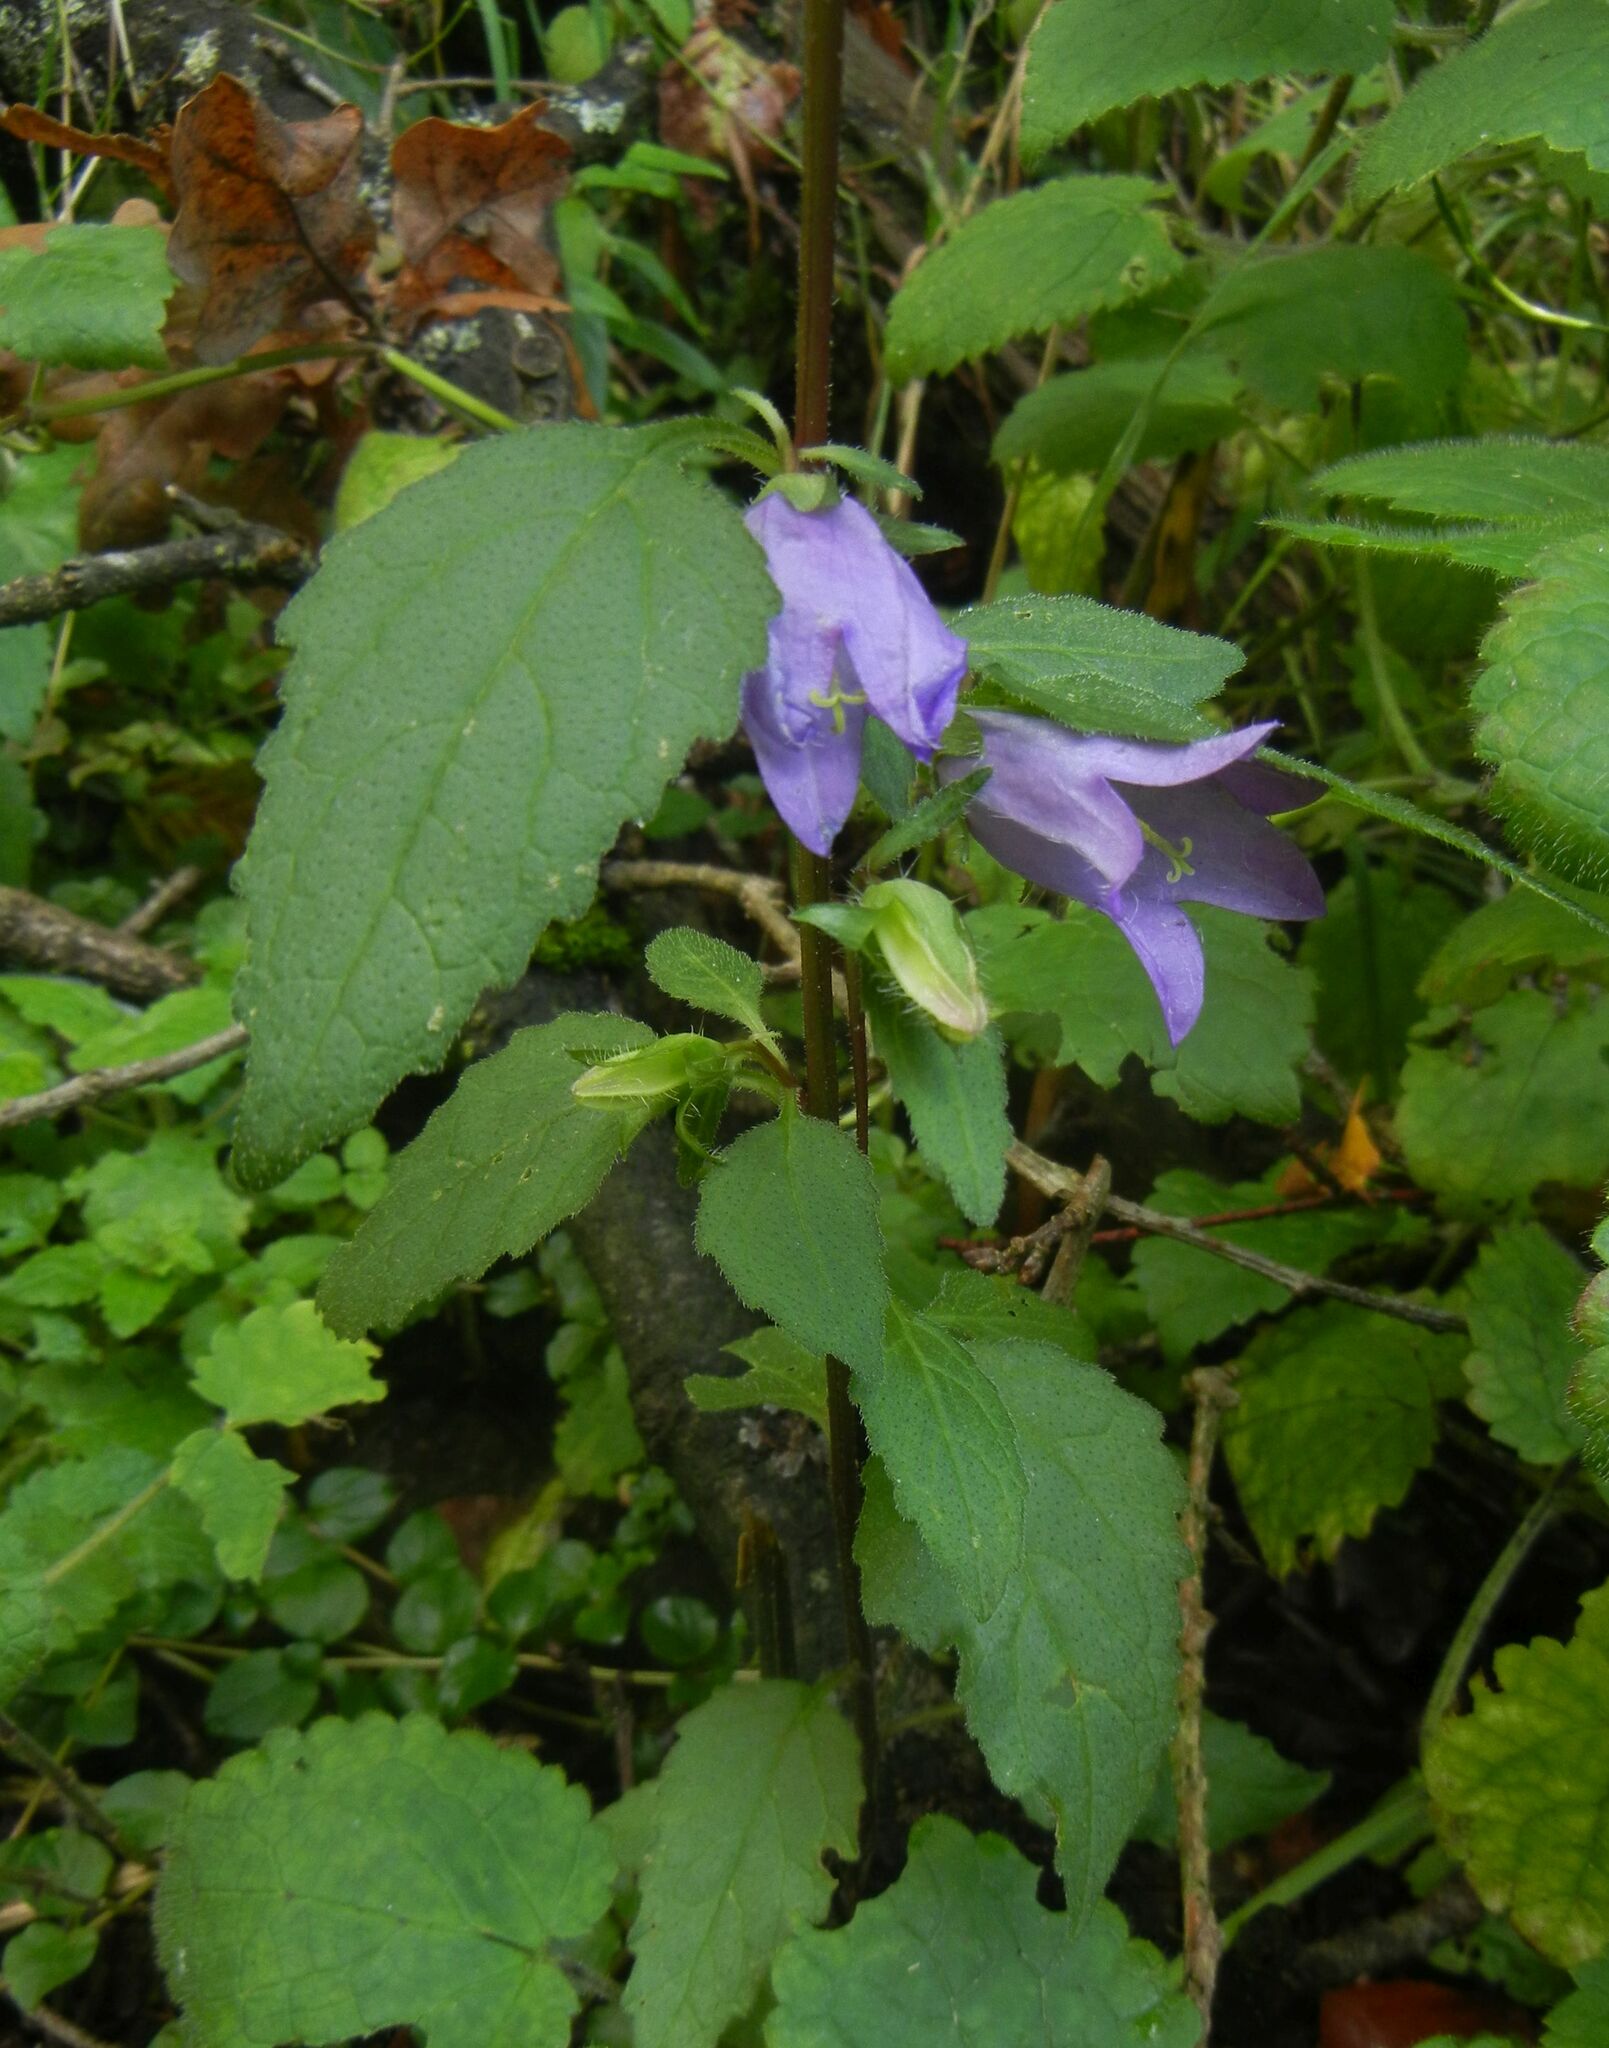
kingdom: Plantae
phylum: Tracheophyta
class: Magnoliopsida
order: Asterales
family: Campanulaceae
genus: Campanula
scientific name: Campanula trachelium
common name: Nettle-leaved bellflower
